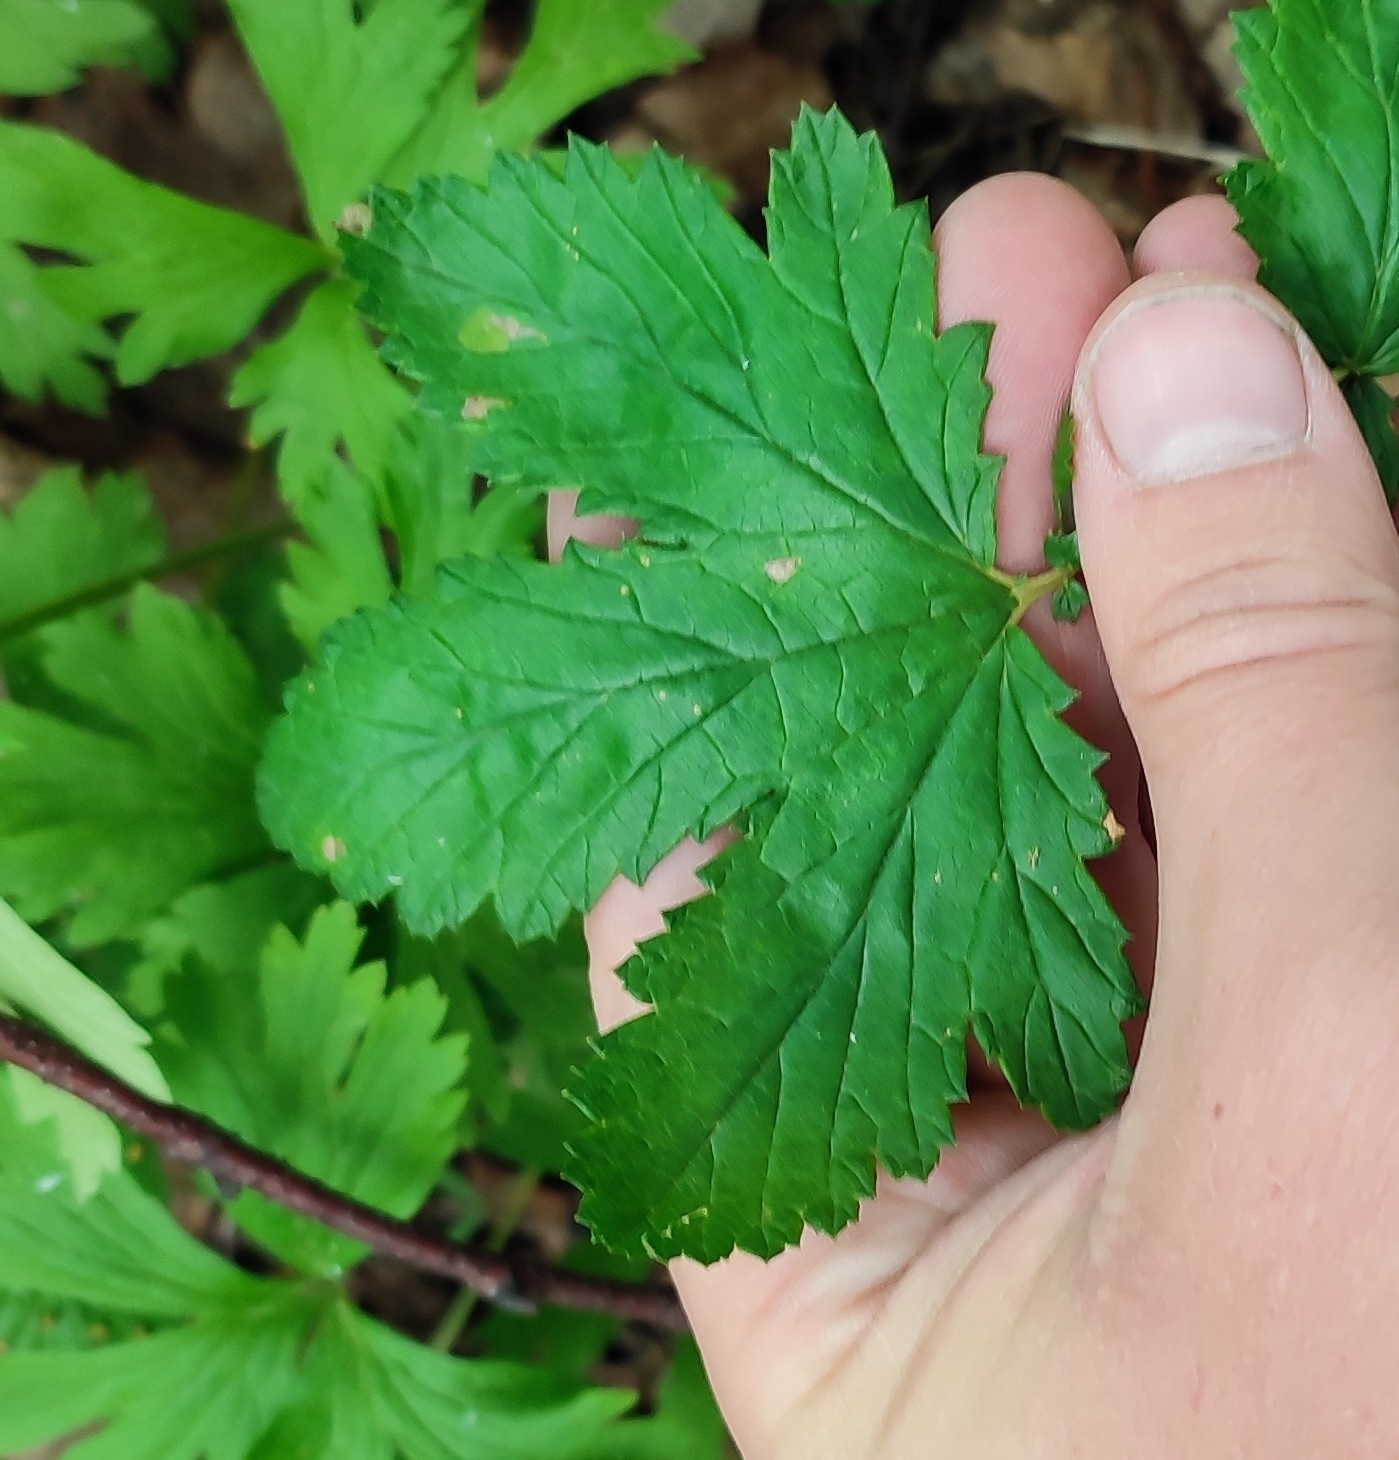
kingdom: Plantae
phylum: Tracheophyta
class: Magnoliopsida
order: Rosales
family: Rosaceae
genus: Filipendula
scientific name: Filipendula ulmaria
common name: Meadowsweet
